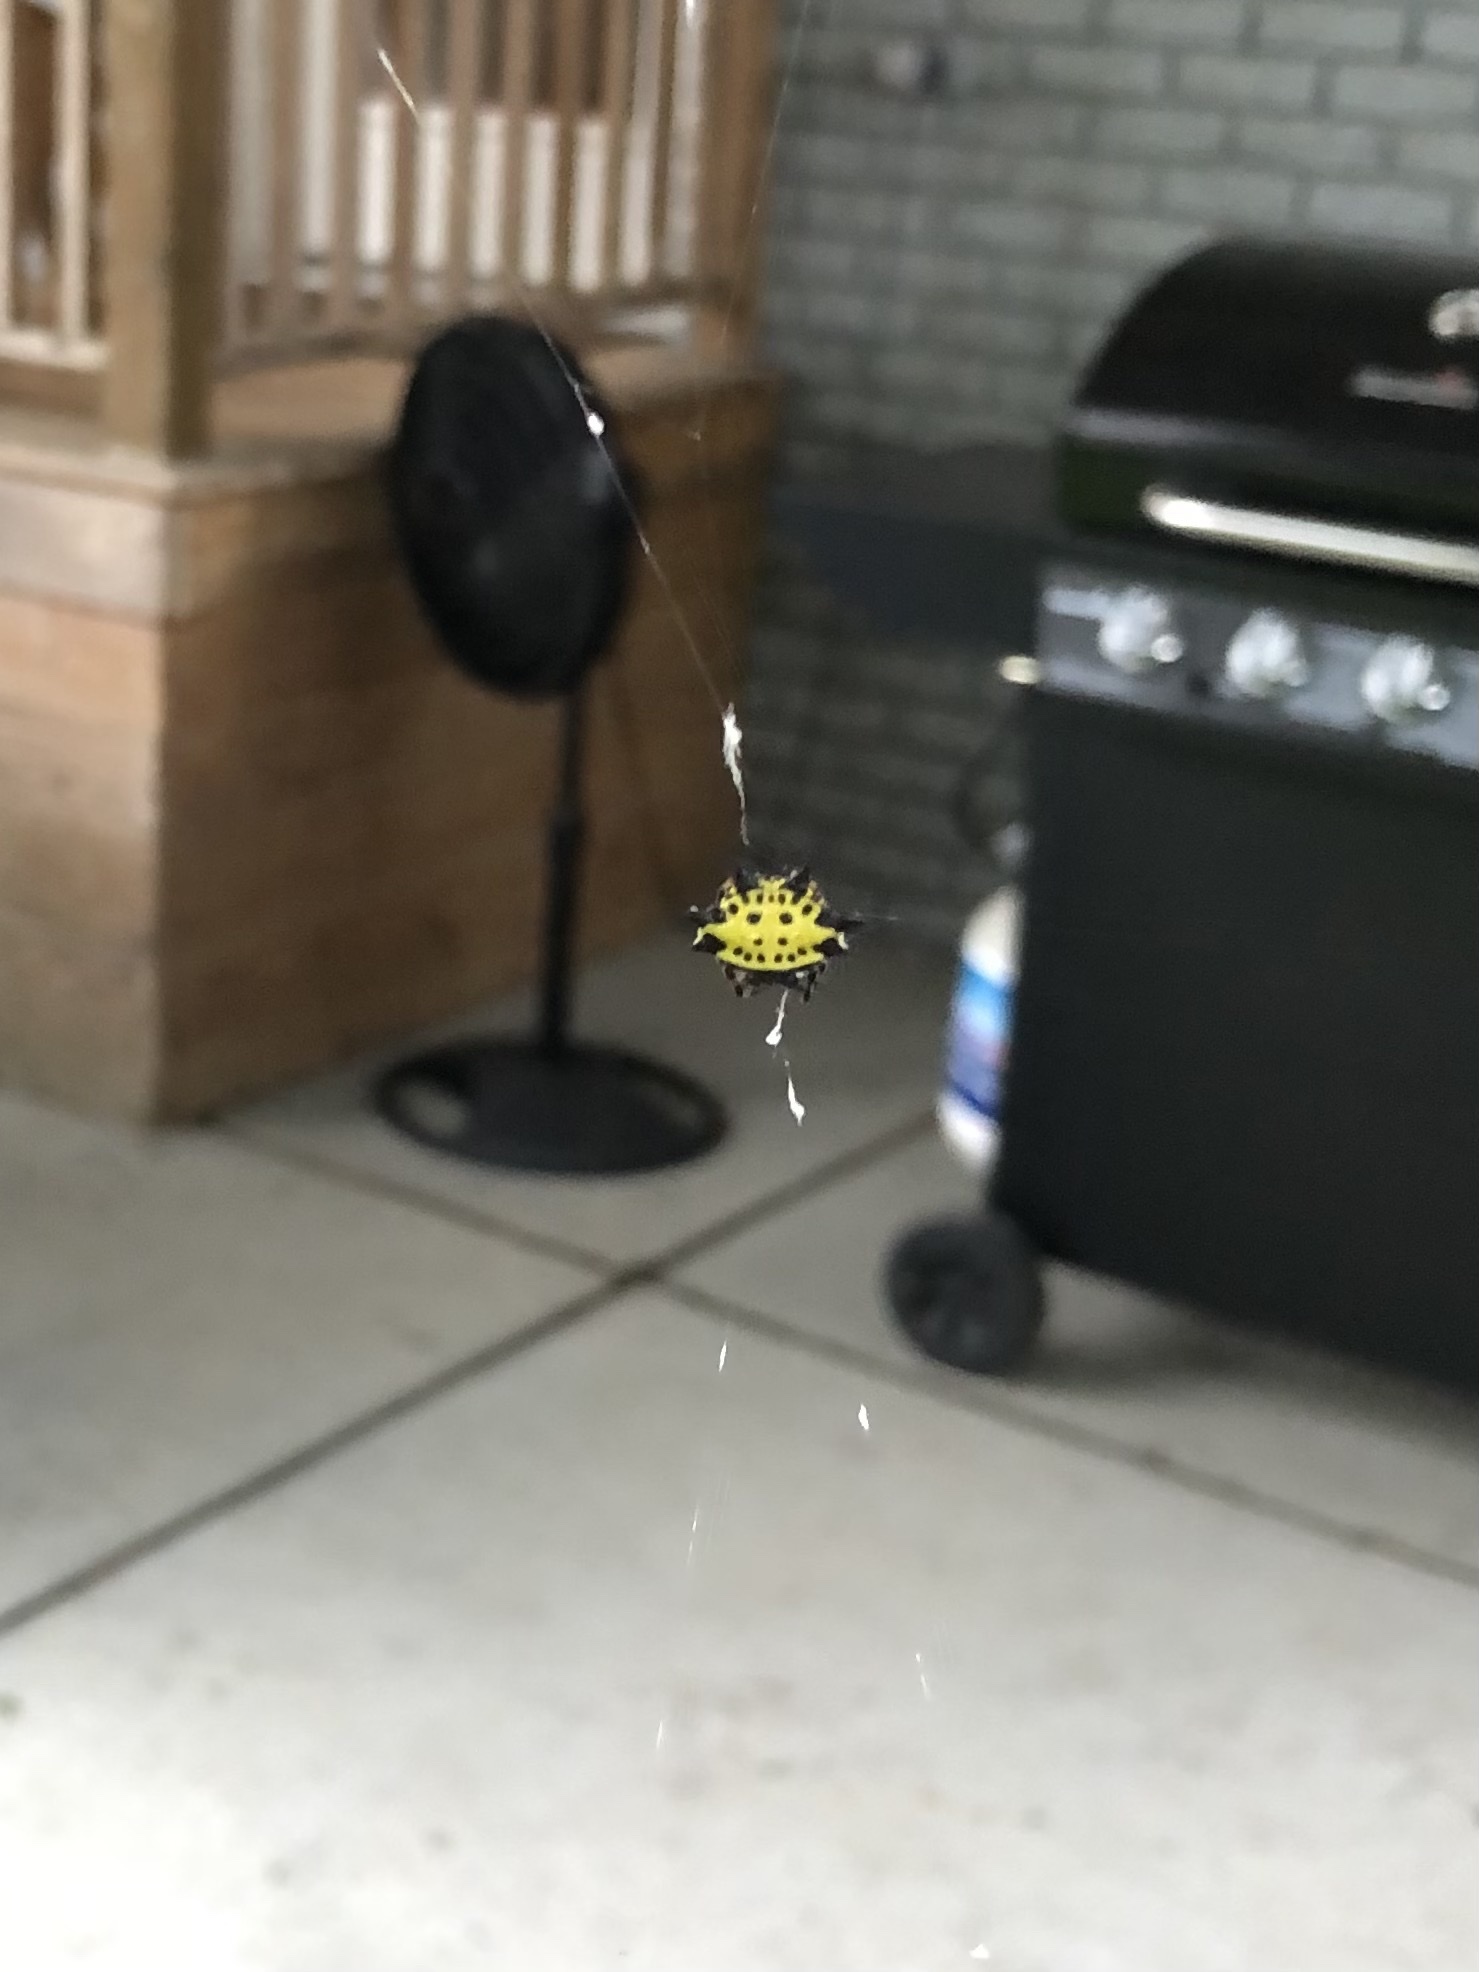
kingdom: Animalia
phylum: Arthropoda
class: Arachnida
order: Araneae
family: Araneidae
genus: Gasteracantha
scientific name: Gasteracantha cancriformis
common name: Orb weavers
